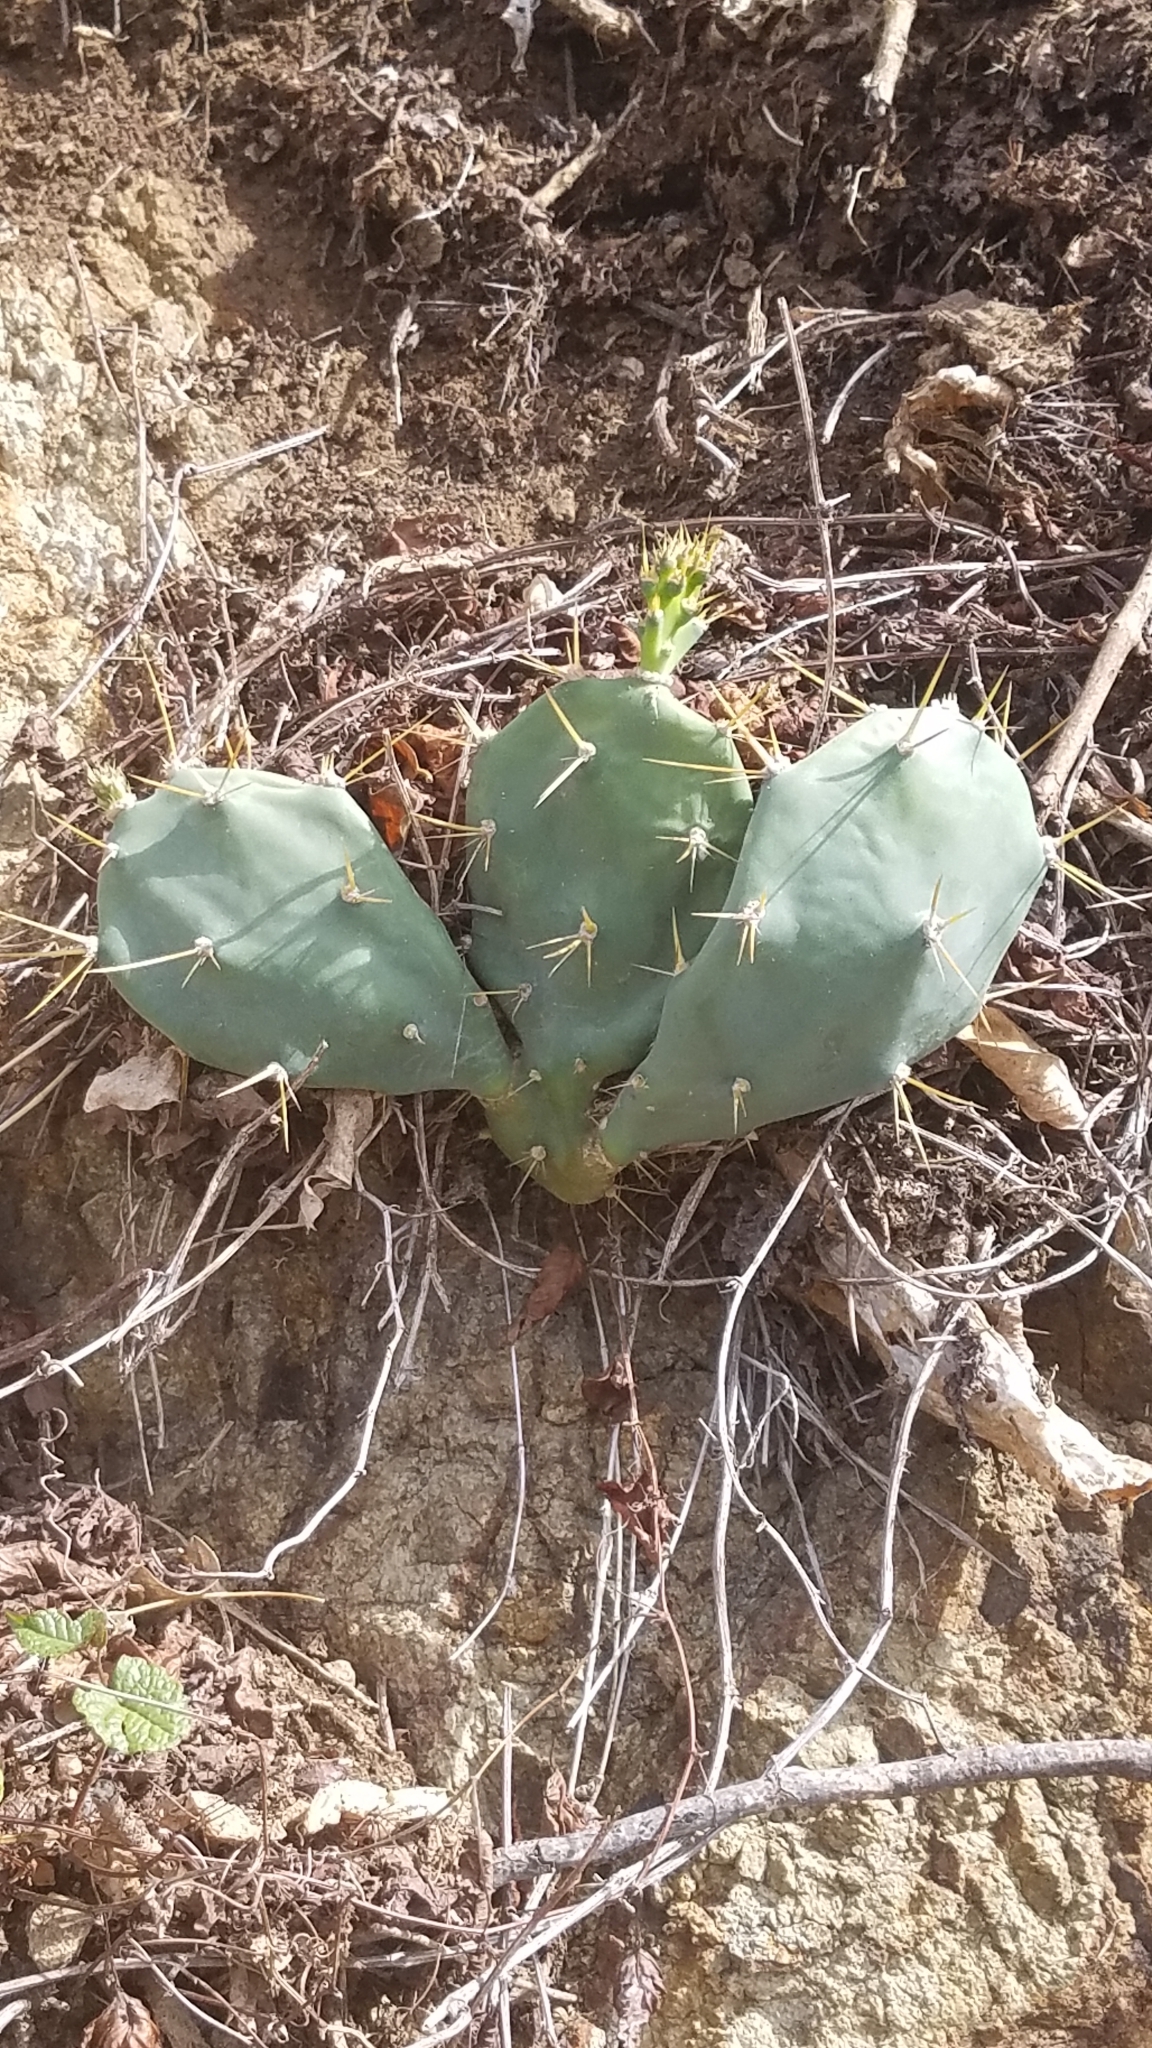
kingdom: Plantae
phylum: Tracheophyta
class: Magnoliopsida
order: Caryophyllales
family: Cactaceae
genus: Opuntia
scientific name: Opuntia stricta
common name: Erect pricklypear
